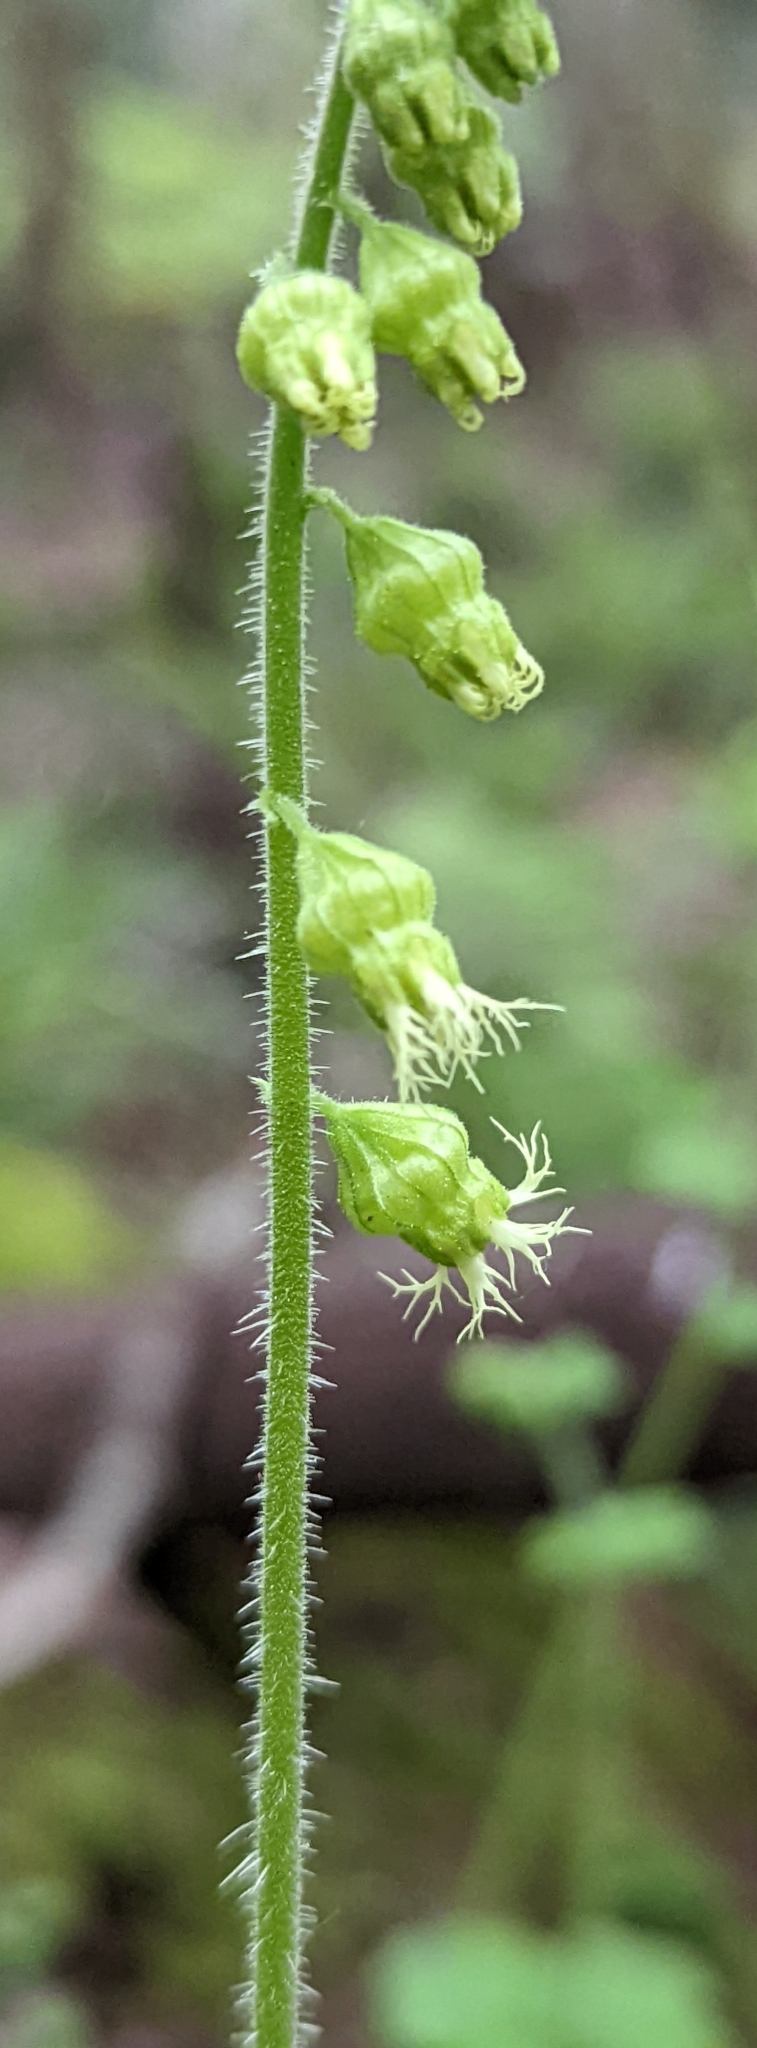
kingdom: Plantae
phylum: Tracheophyta
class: Magnoliopsida
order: Saxifragales
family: Saxifragaceae
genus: Tellima
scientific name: Tellima grandiflora
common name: Fringecups
